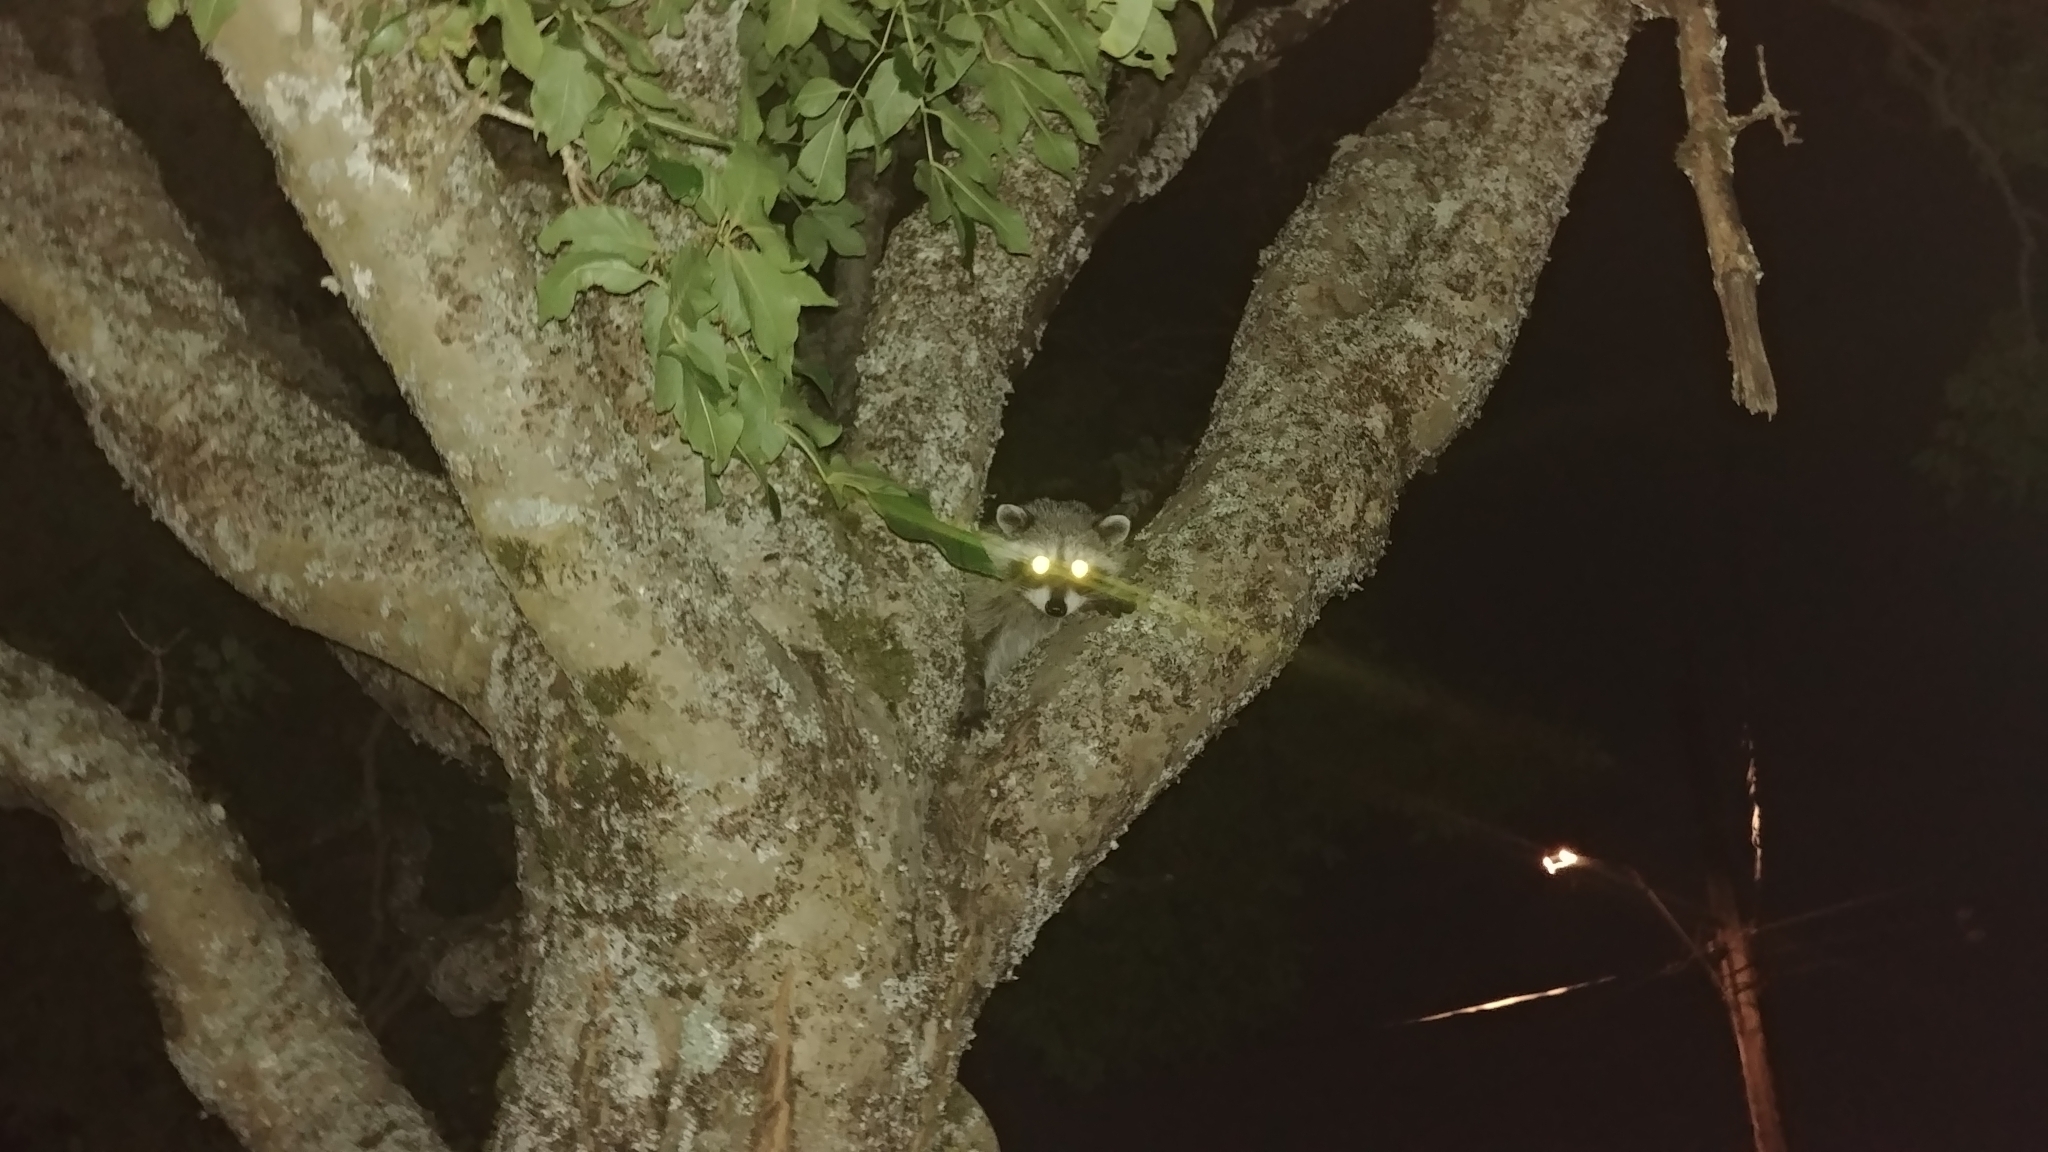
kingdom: Animalia
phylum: Chordata
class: Mammalia
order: Carnivora
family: Procyonidae
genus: Procyon
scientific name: Procyon lotor
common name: Raccoon
